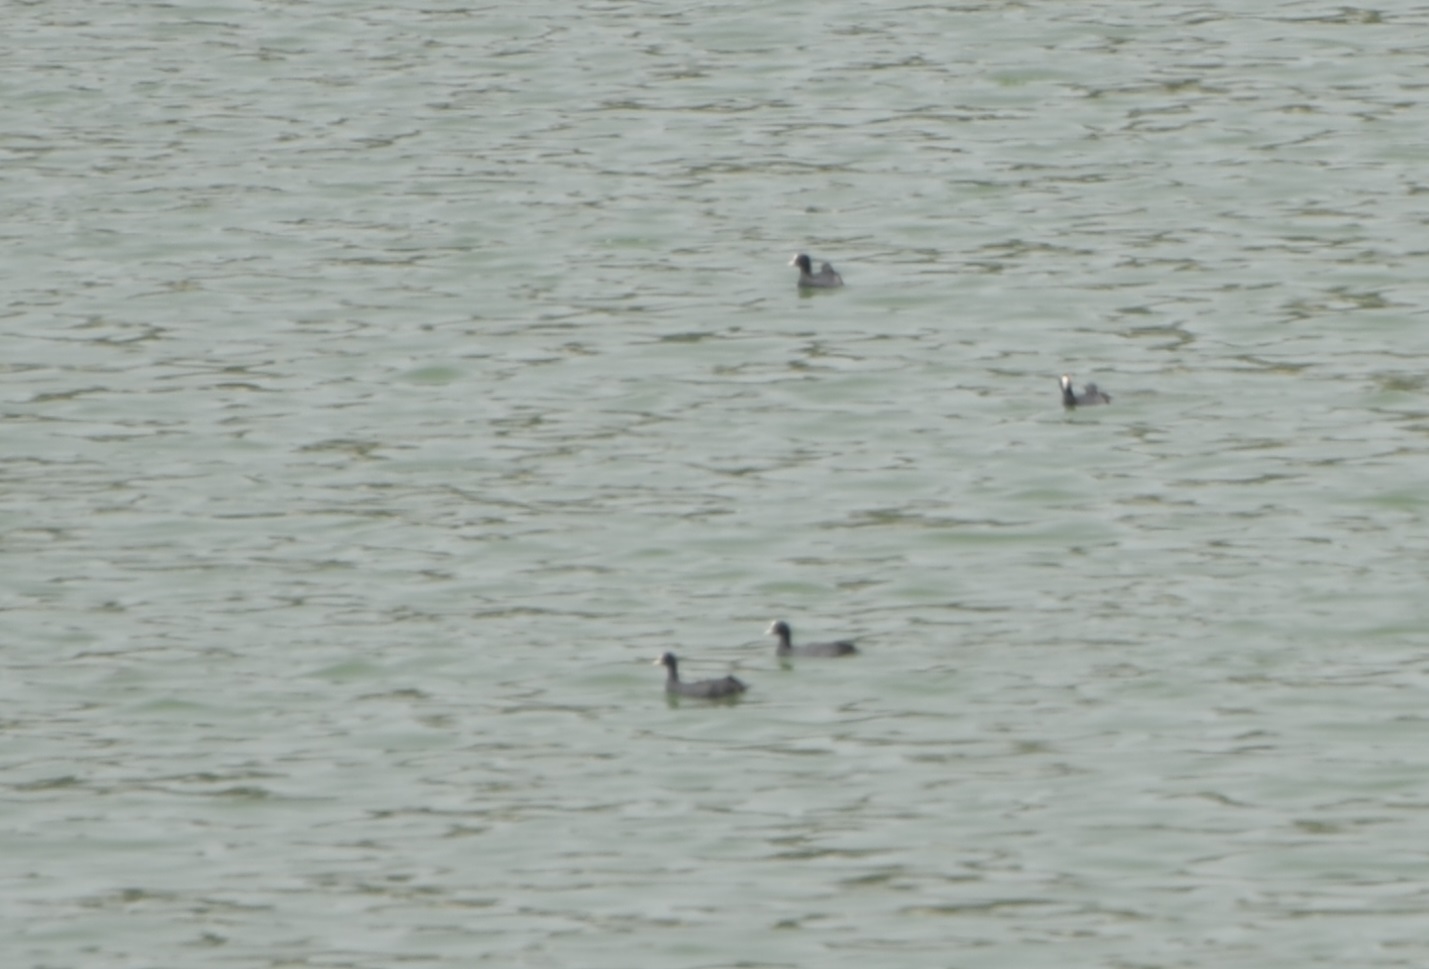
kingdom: Animalia
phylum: Chordata
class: Aves
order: Gruiformes
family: Rallidae
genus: Fulica
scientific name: Fulica atra
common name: Eurasian coot
